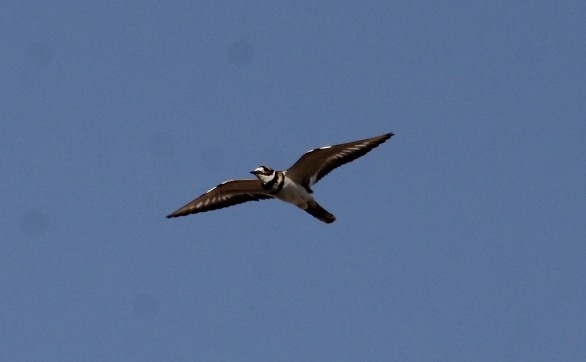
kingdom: Animalia
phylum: Chordata
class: Aves
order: Charadriiformes
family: Charadriidae
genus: Charadrius
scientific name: Charadrius vociferus
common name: Killdeer
